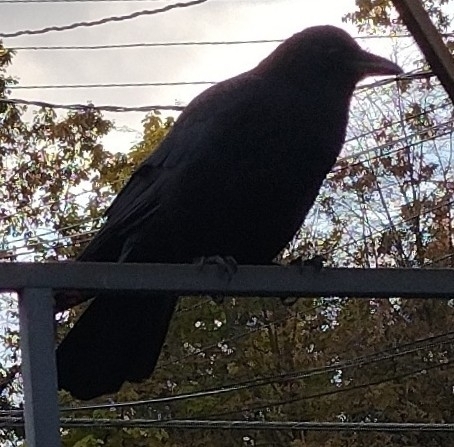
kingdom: Animalia
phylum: Chordata
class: Aves
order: Passeriformes
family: Corvidae
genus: Corvus
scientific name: Corvus brachyrhynchos
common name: American crow
